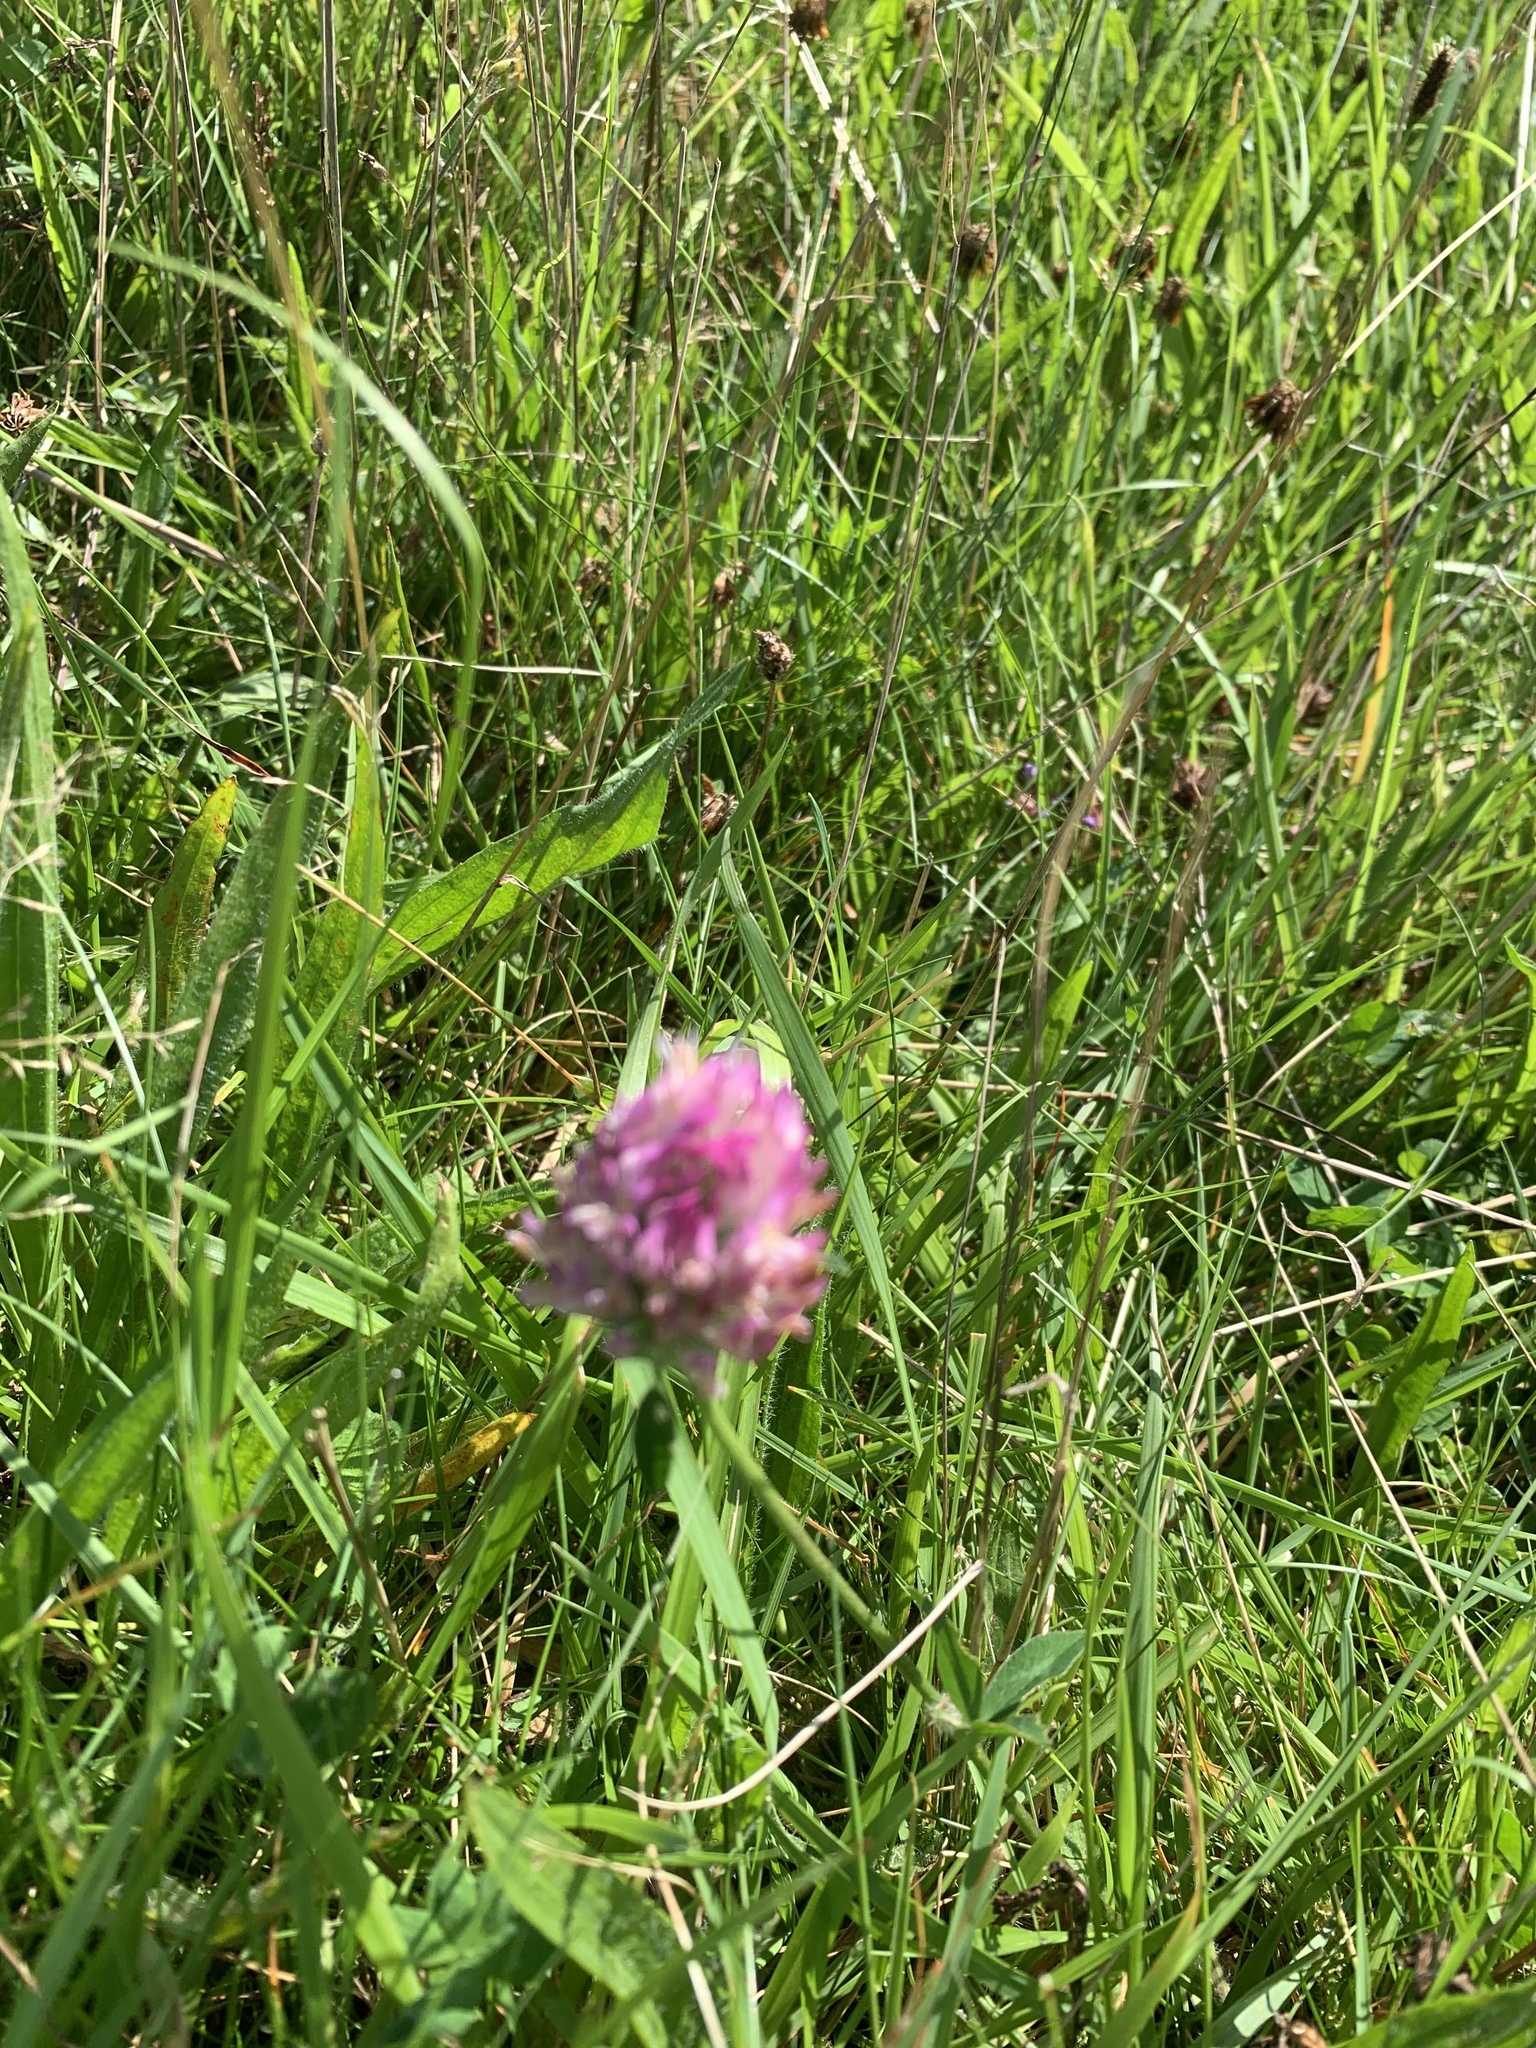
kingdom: Plantae
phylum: Tracheophyta
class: Magnoliopsida
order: Fabales
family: Fabaceae
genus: Trifolium
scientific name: Trifolium pratense
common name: Red clover
